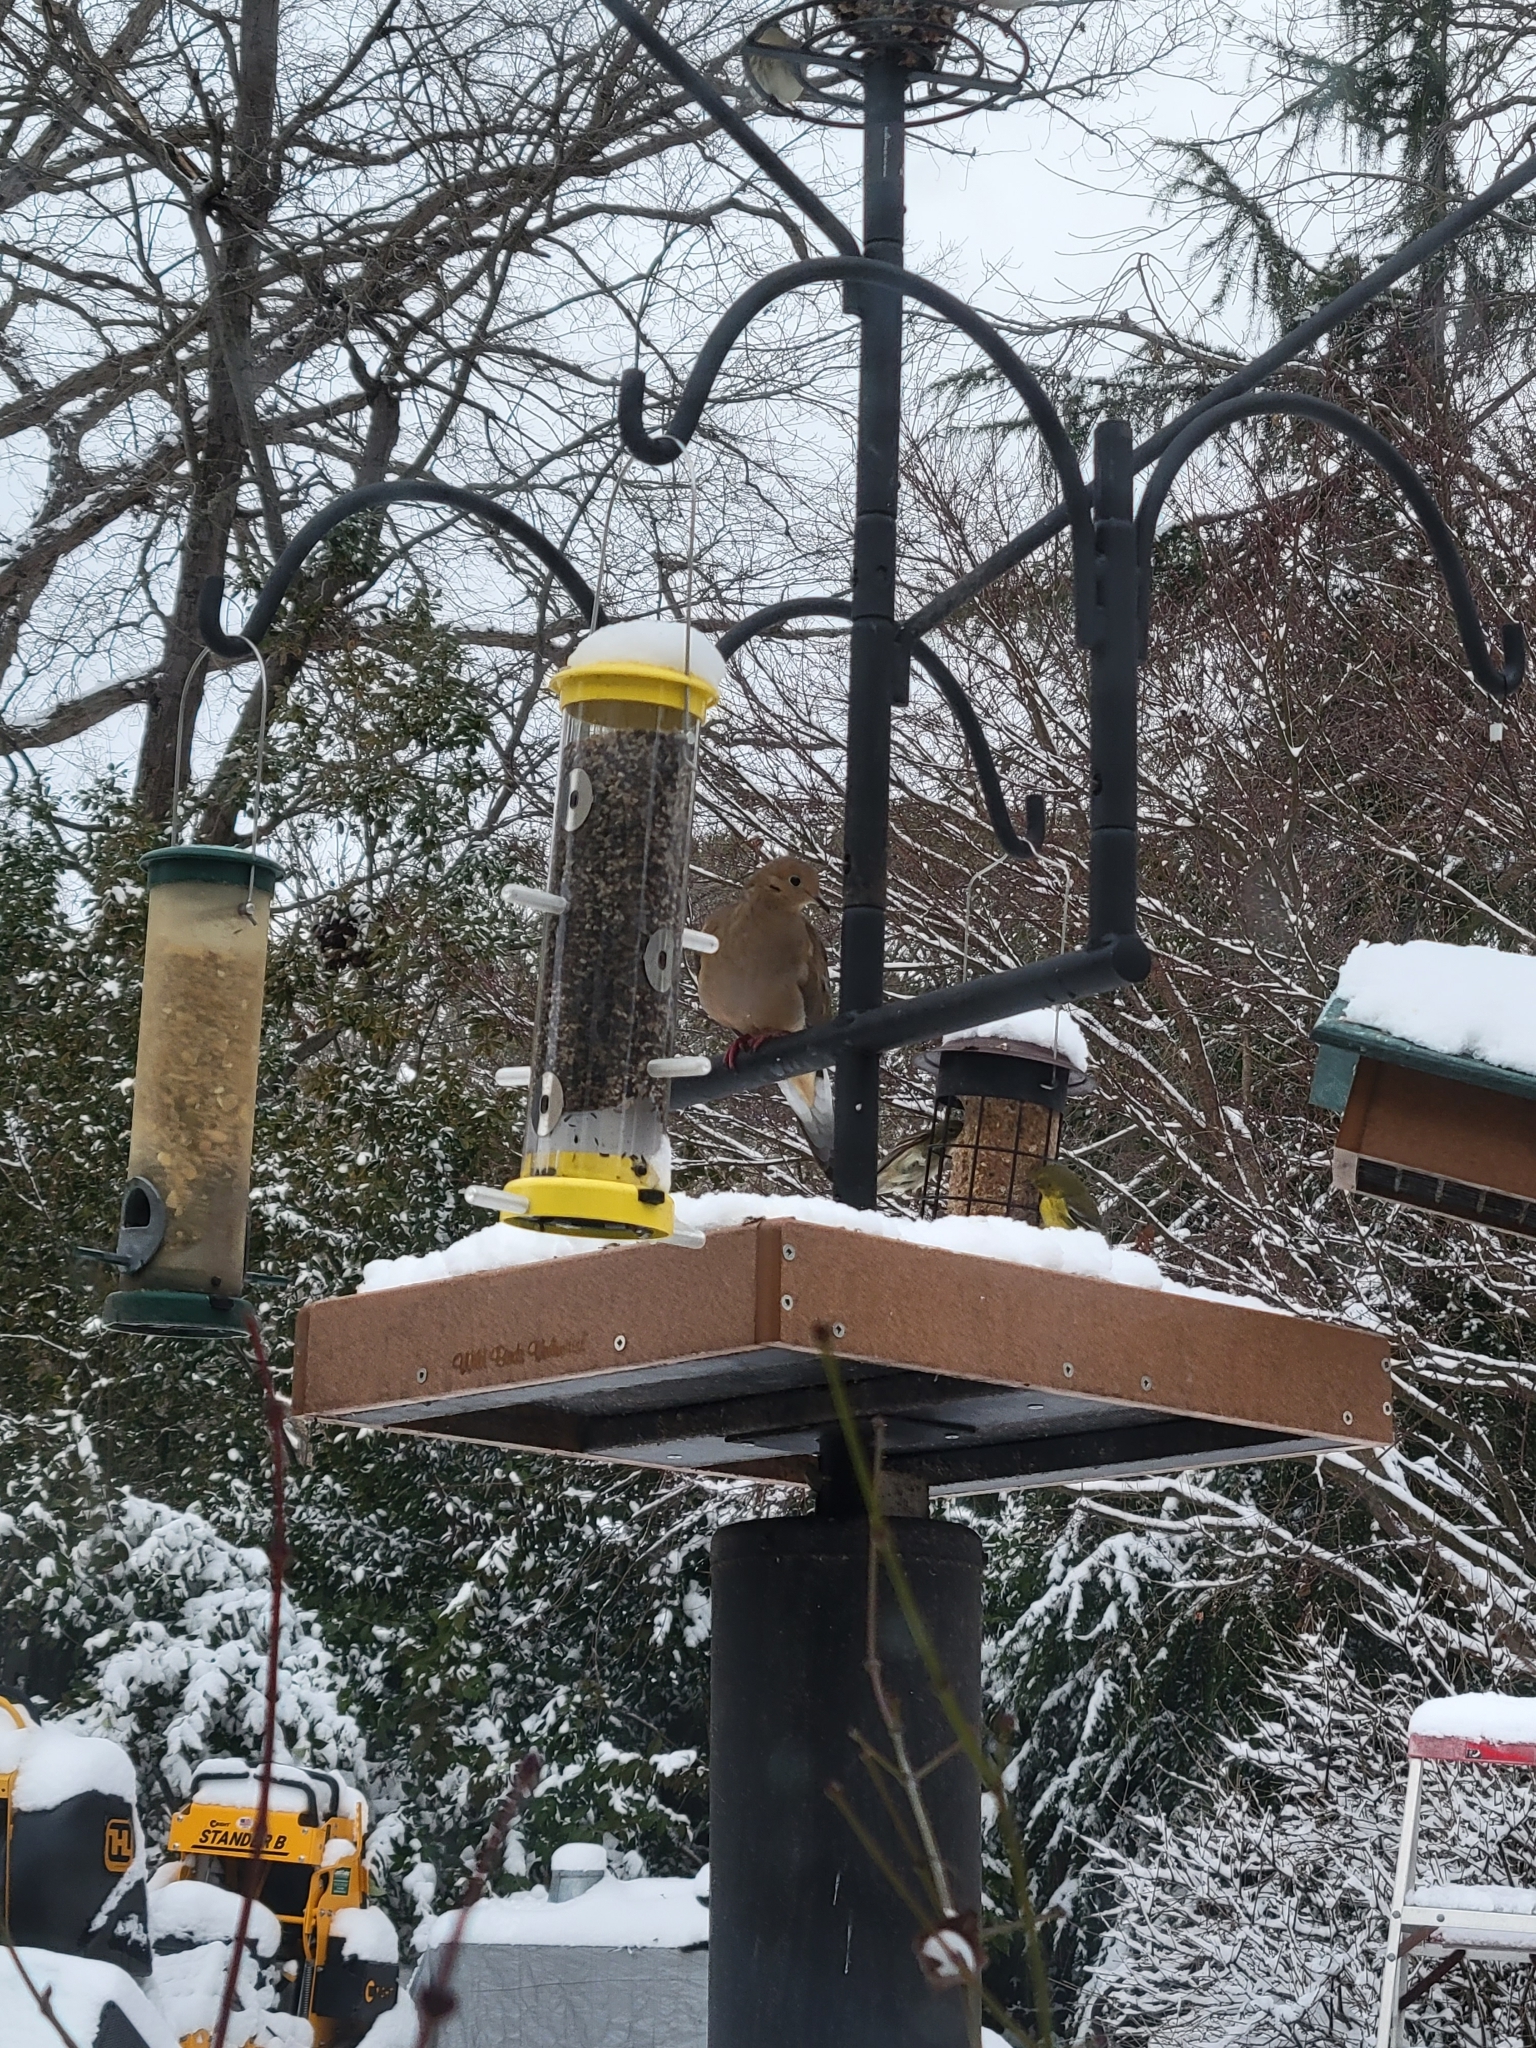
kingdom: Animalia
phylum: Chordata
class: Aves
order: Columbiformes
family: Columbidae
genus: Zenaida
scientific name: Zenaida macroura
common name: Mourning dove
